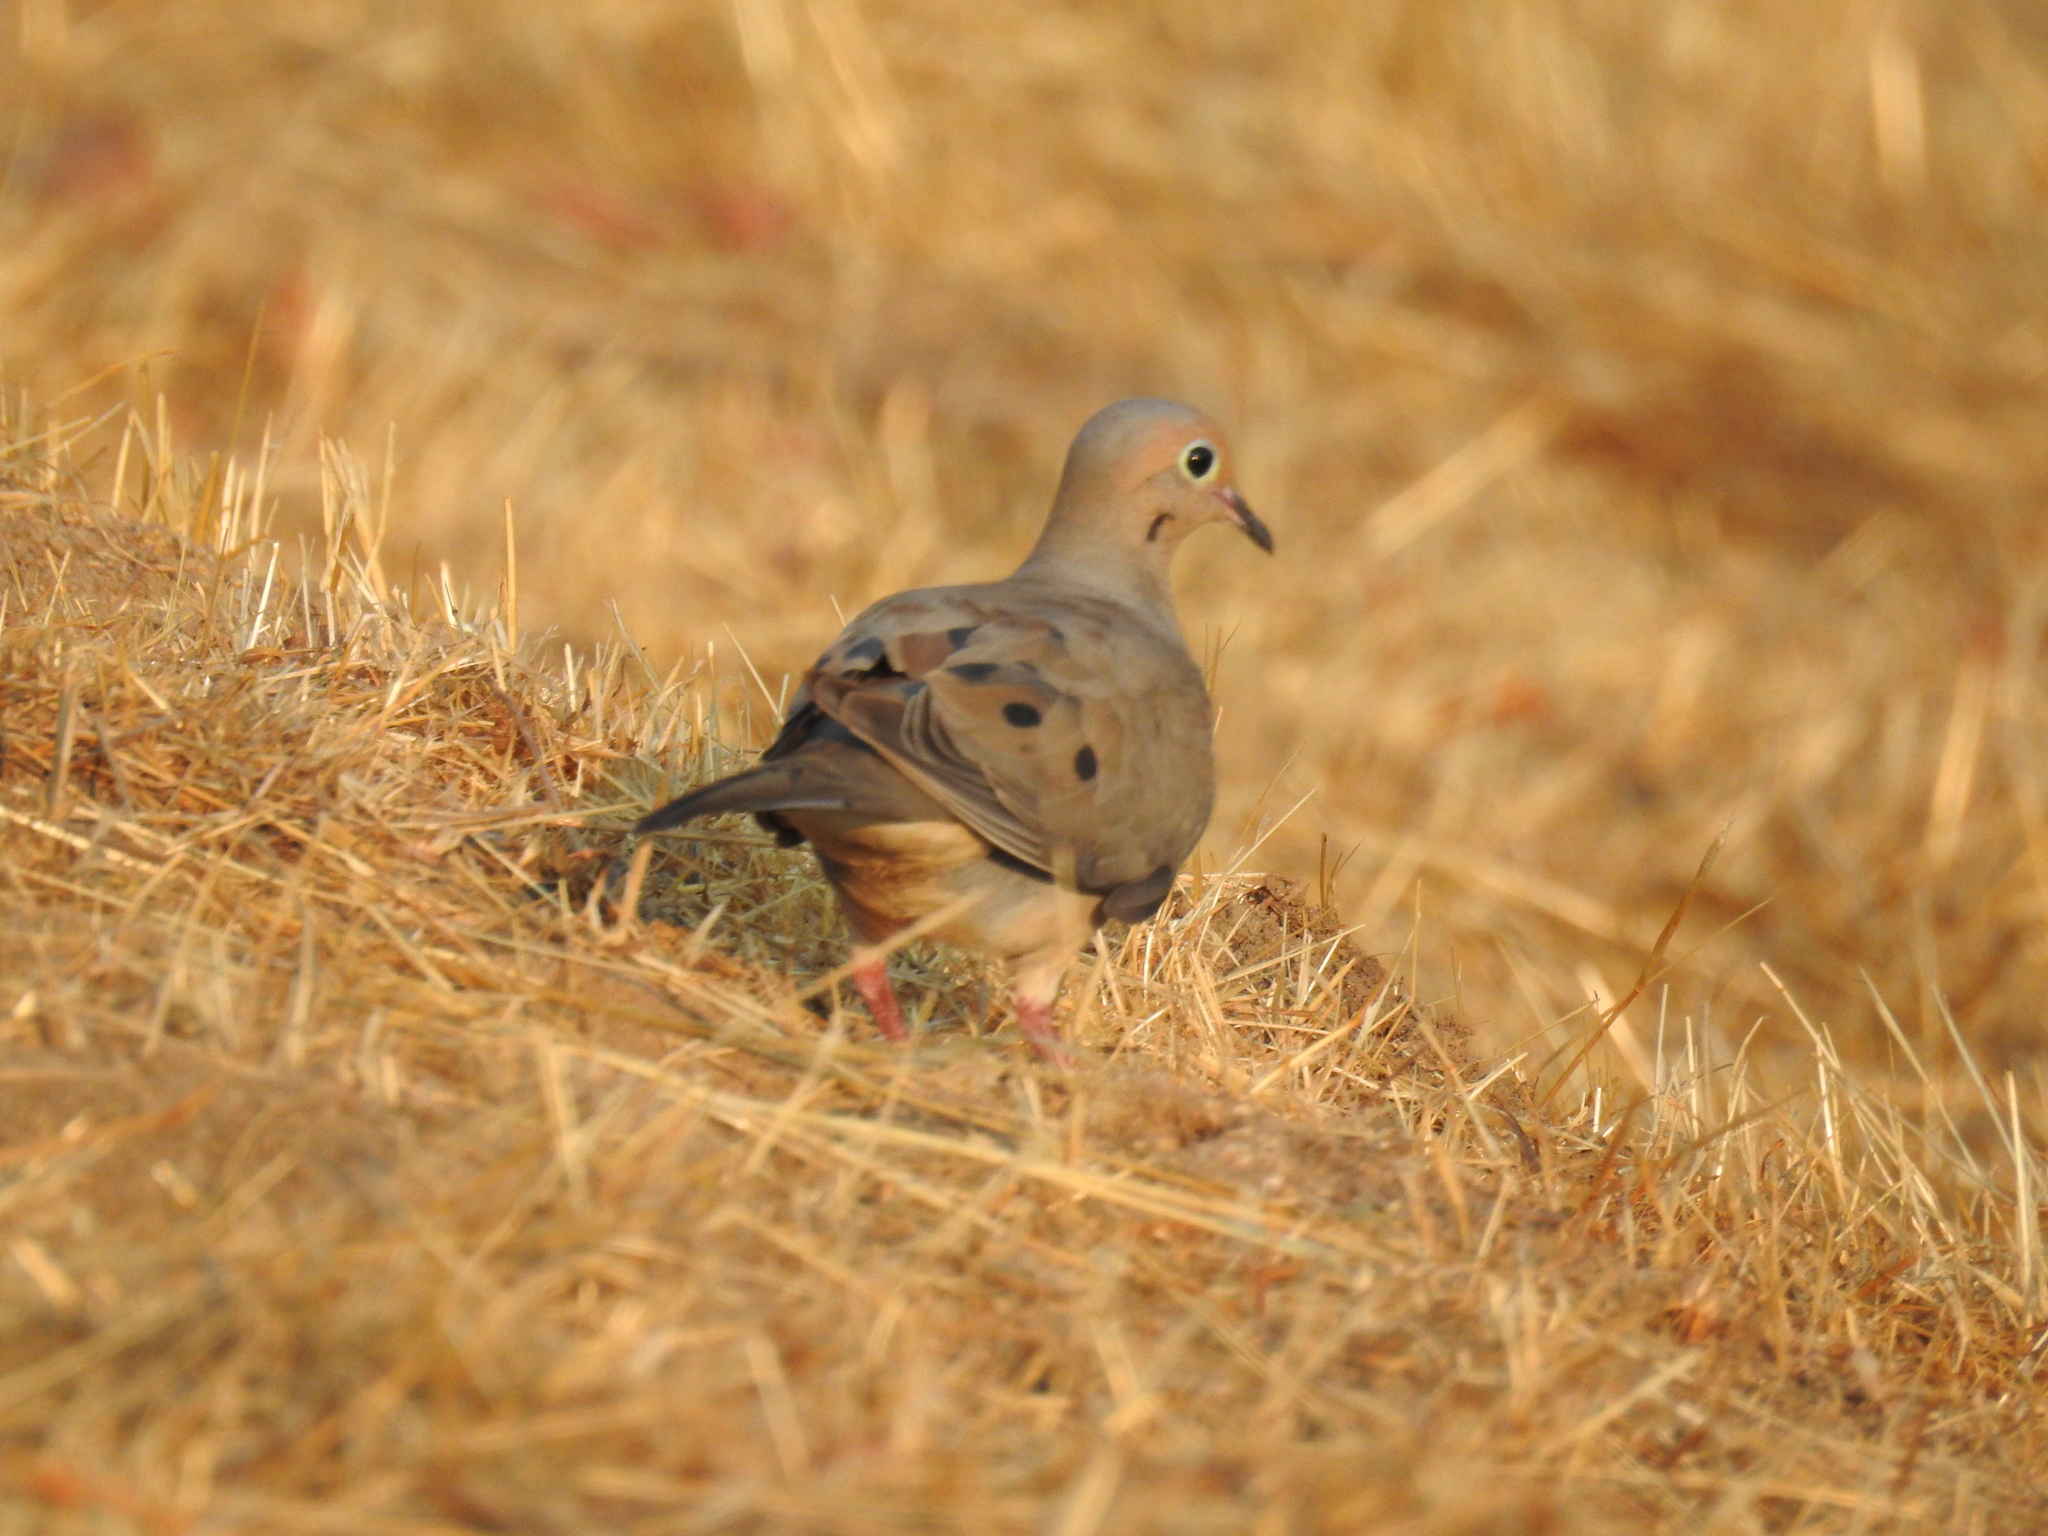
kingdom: Animalia
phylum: Chordata
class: Aves
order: Columbiformes
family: Columbidae
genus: Zenaida
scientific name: Zenaida macroura
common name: Mourning dove
